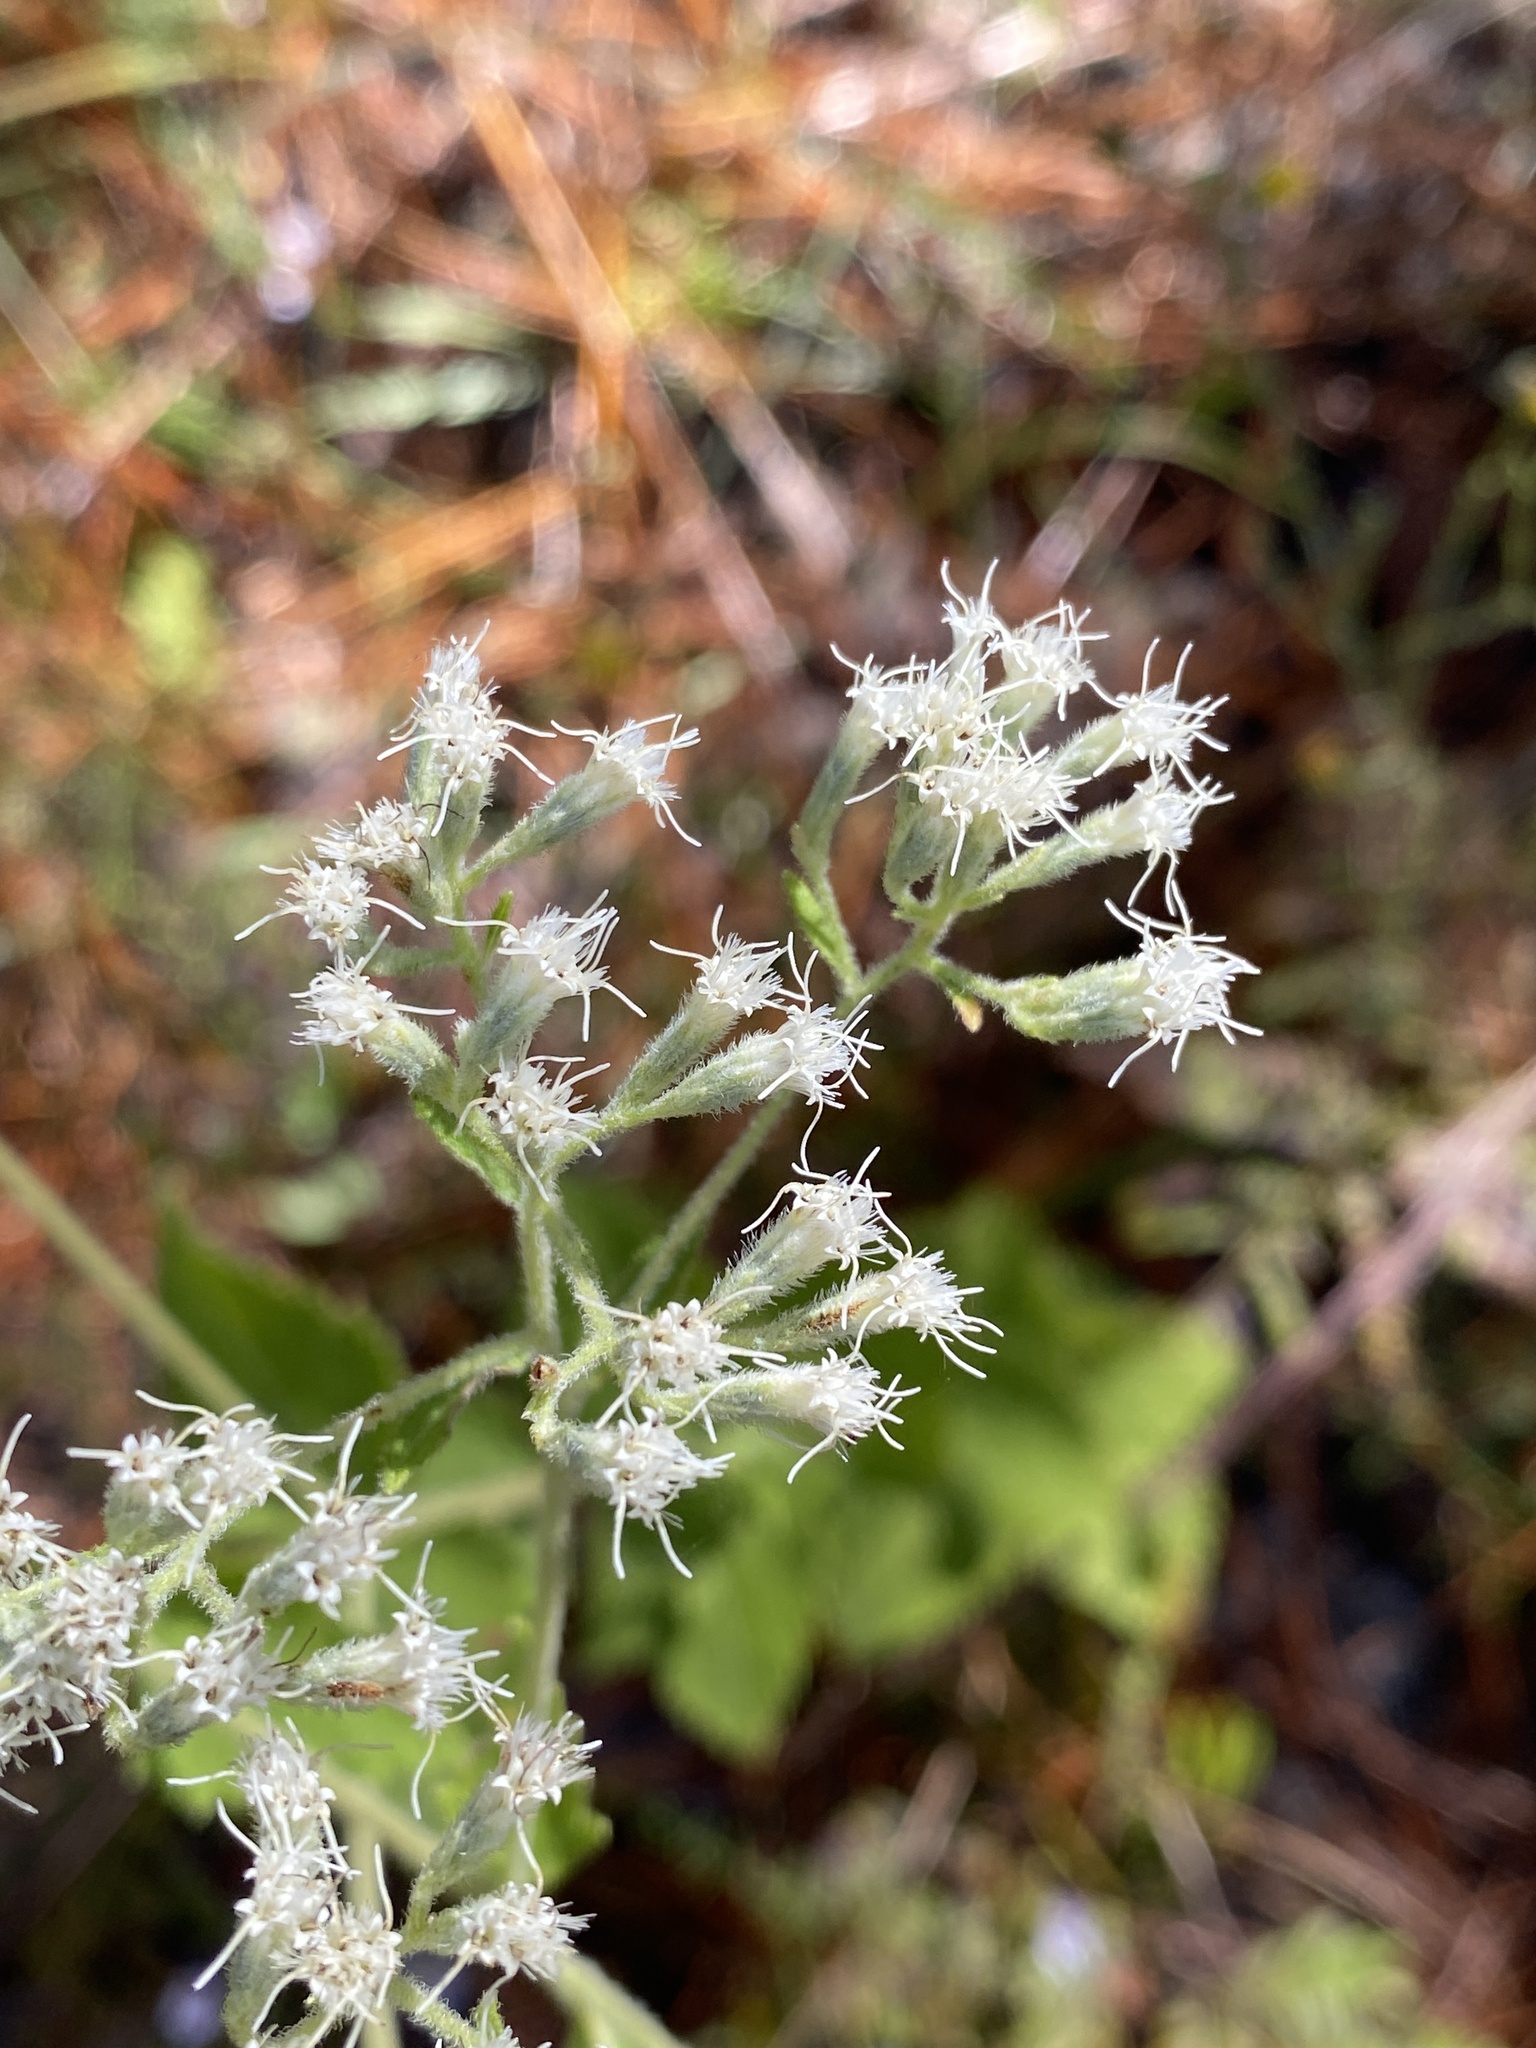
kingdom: Plantae
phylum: Tracheophyta
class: Magnoliopsida
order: Asterales
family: Asteraceae
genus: Eupatorium
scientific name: Eupatorium rotundifolium
